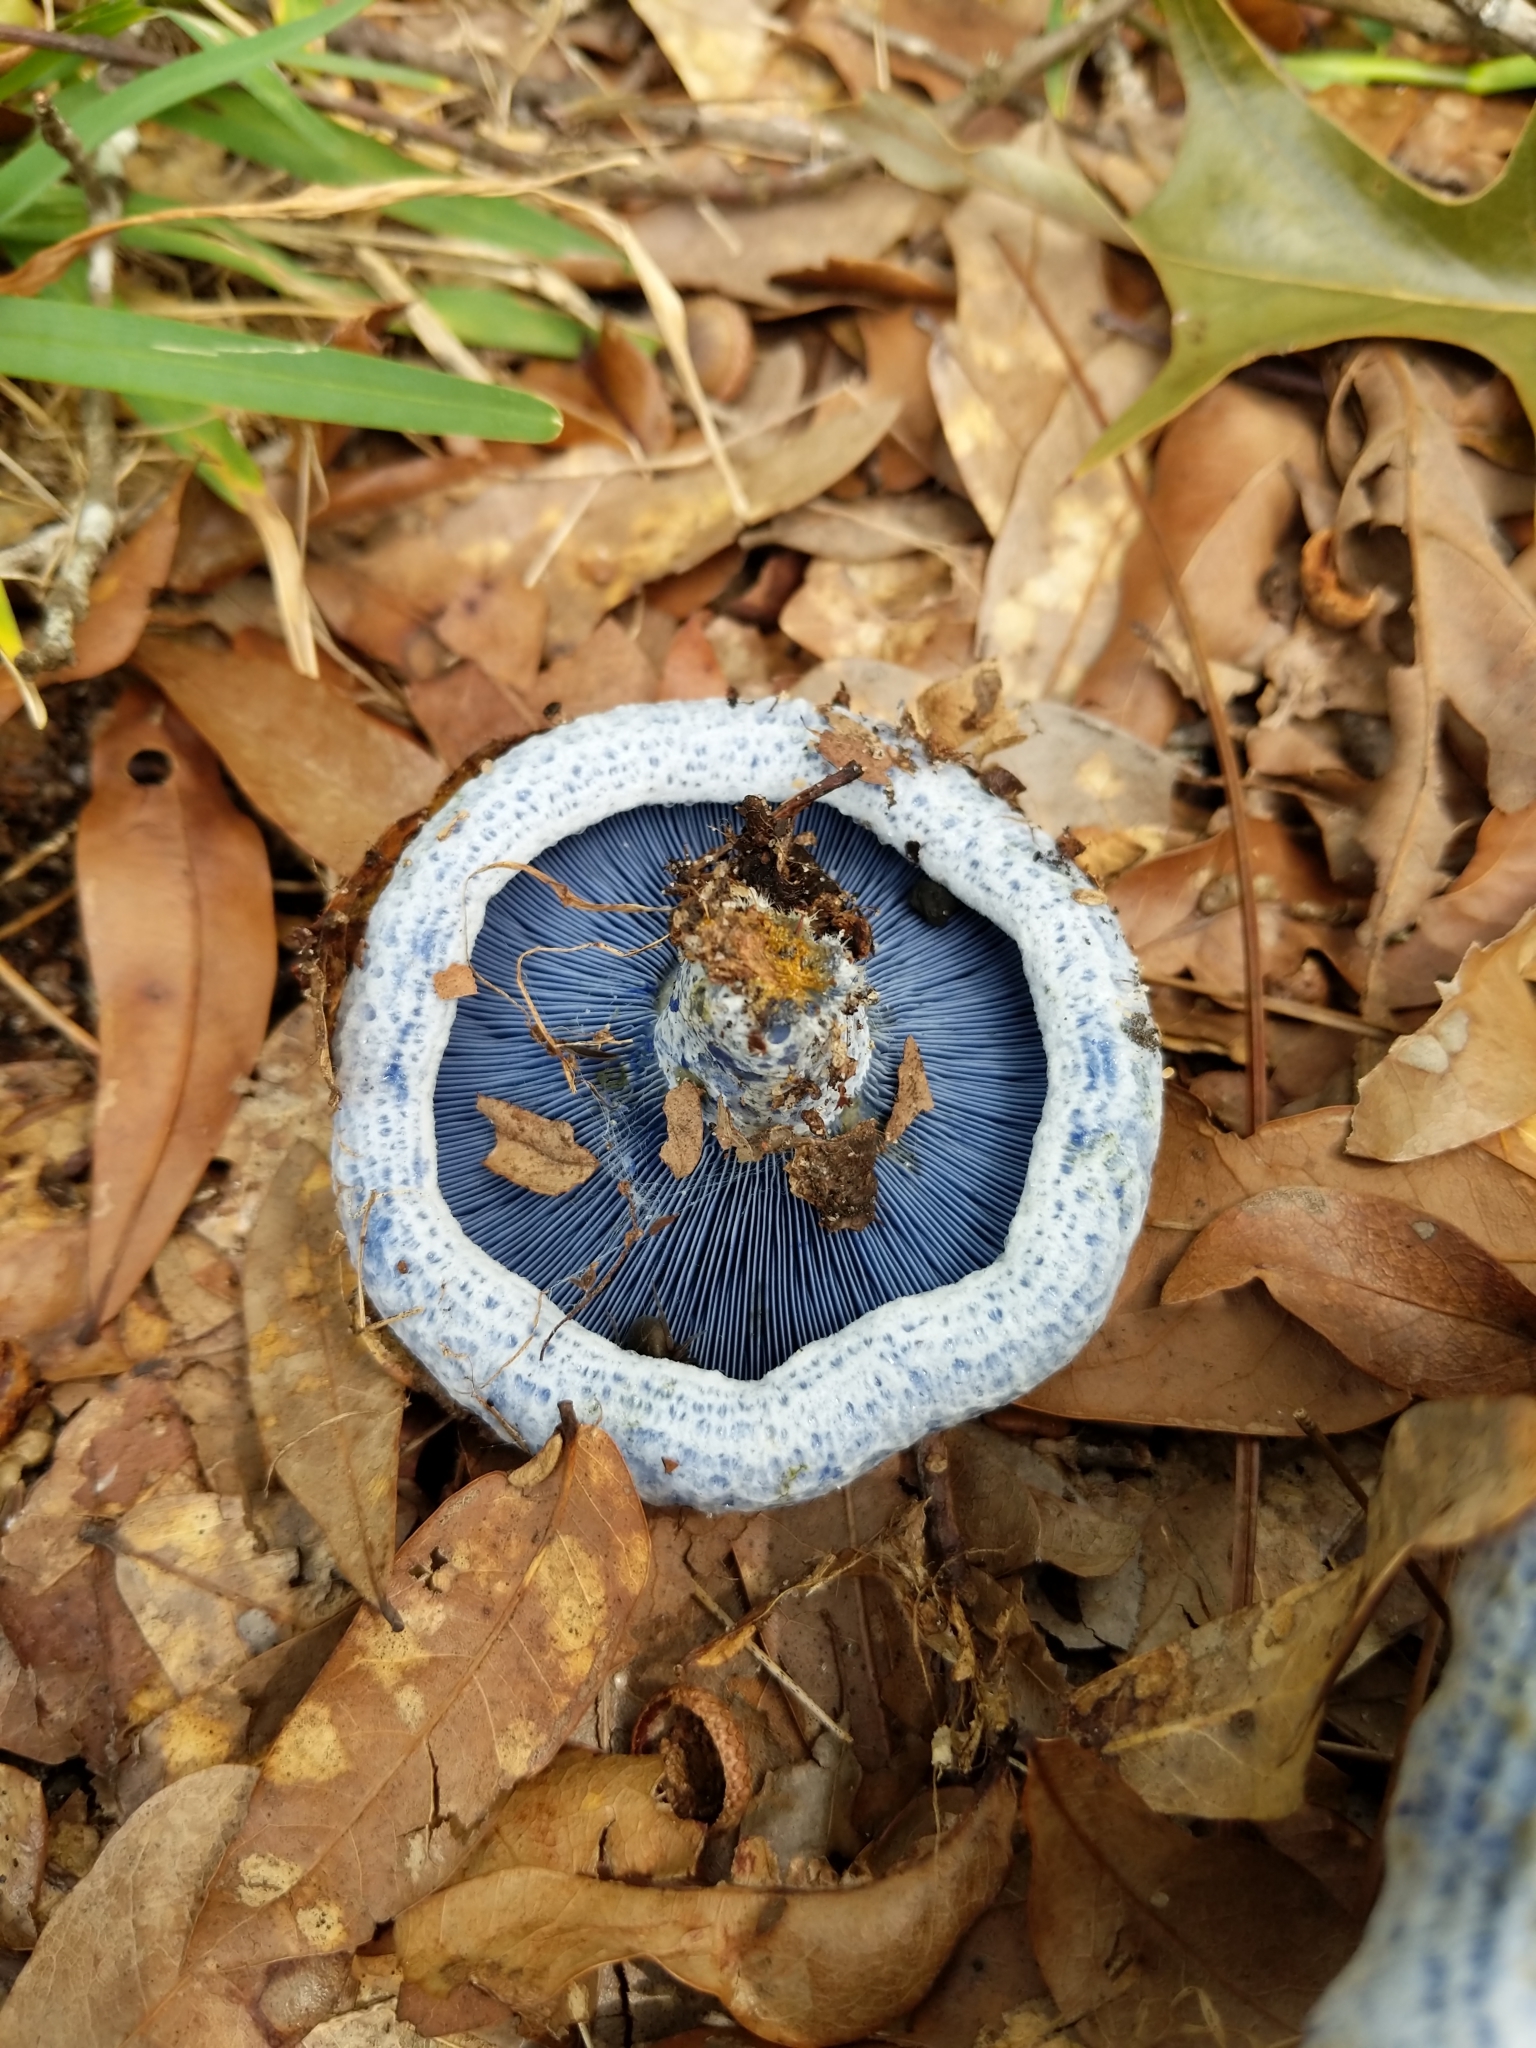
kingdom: Fungi
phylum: Basidiomycota
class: Agaricomycetes
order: Russulales
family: Russulaceae
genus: Lactarius
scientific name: Lactarius indigo
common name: Indigo milk cap
